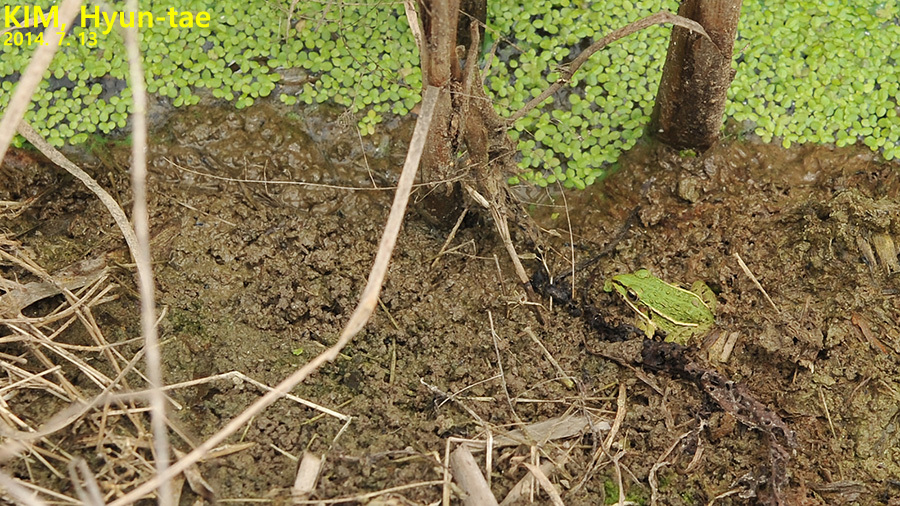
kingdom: Animalia
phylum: Chordata
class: Amphibia
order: Anura
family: Ranidae
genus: Pelophylax
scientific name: Pelophylax nigromaculatus
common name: Black-spotted pond frog
